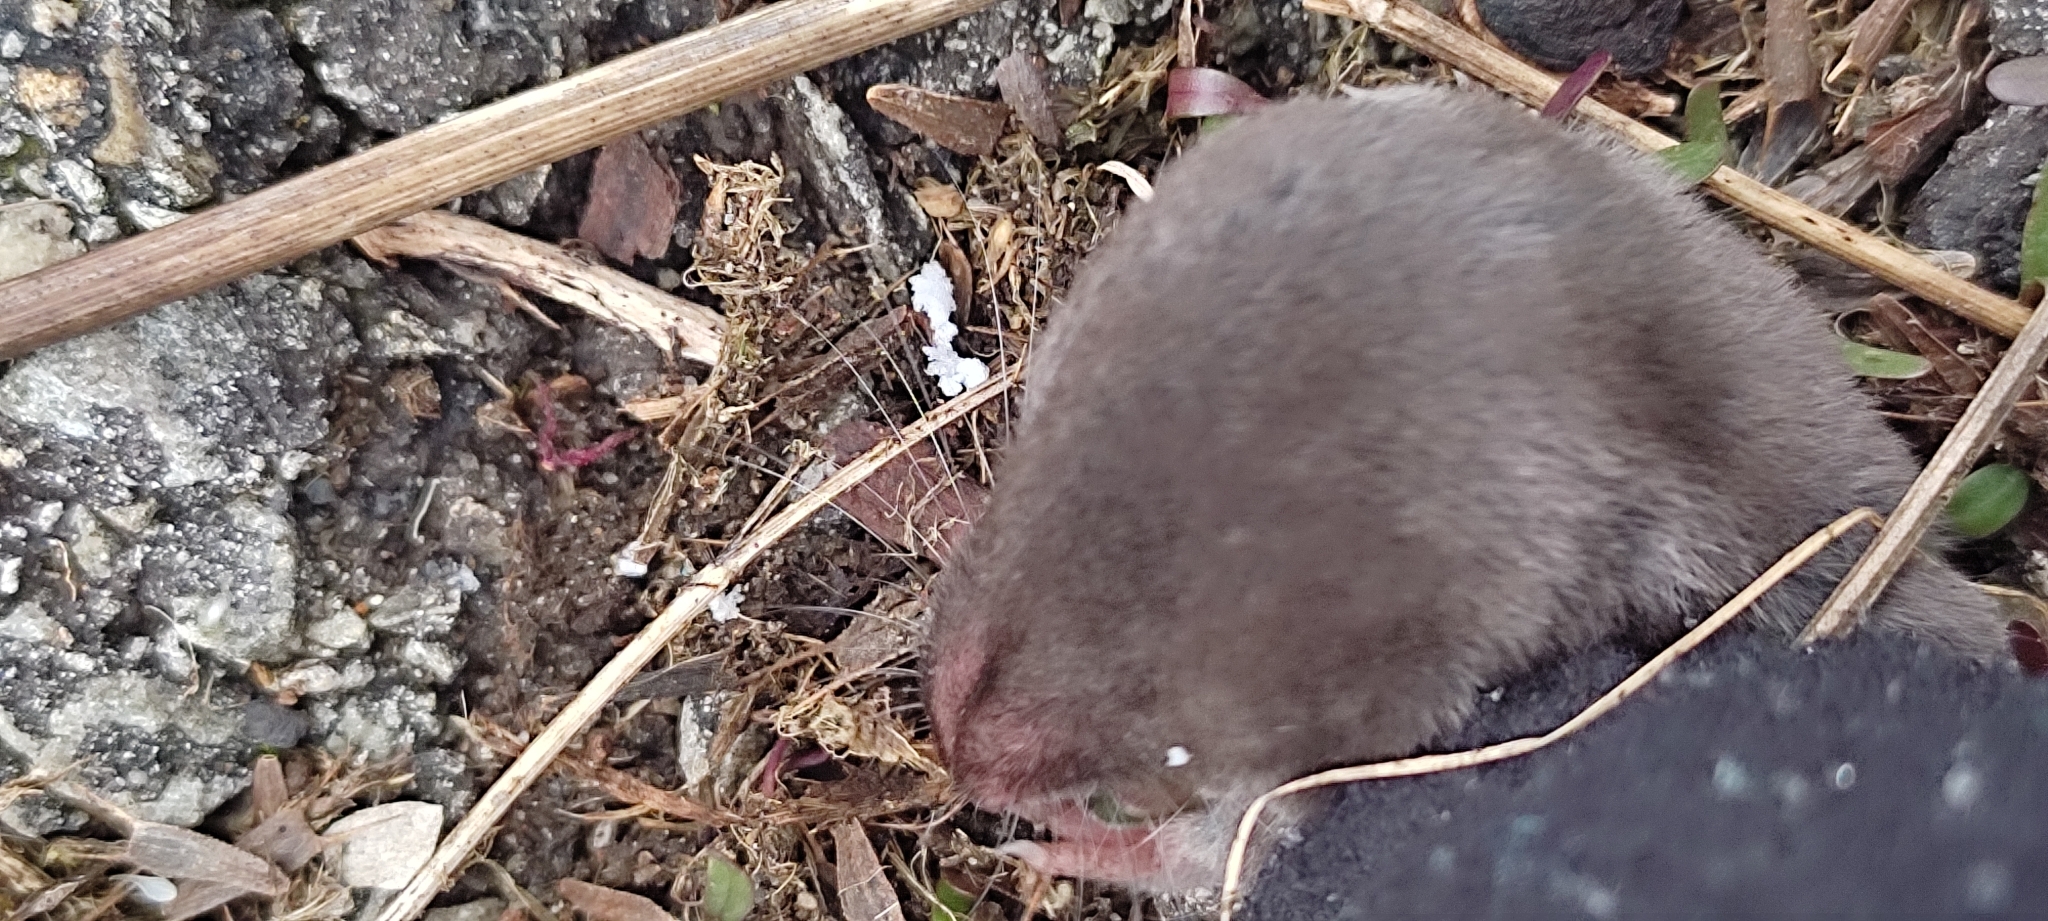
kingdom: Animalia
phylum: Chordata
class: Mammalia
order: Soricomorpha
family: Soricidae
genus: Blarina
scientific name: Blarina brevicauda
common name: Northern short-tailed shrew
